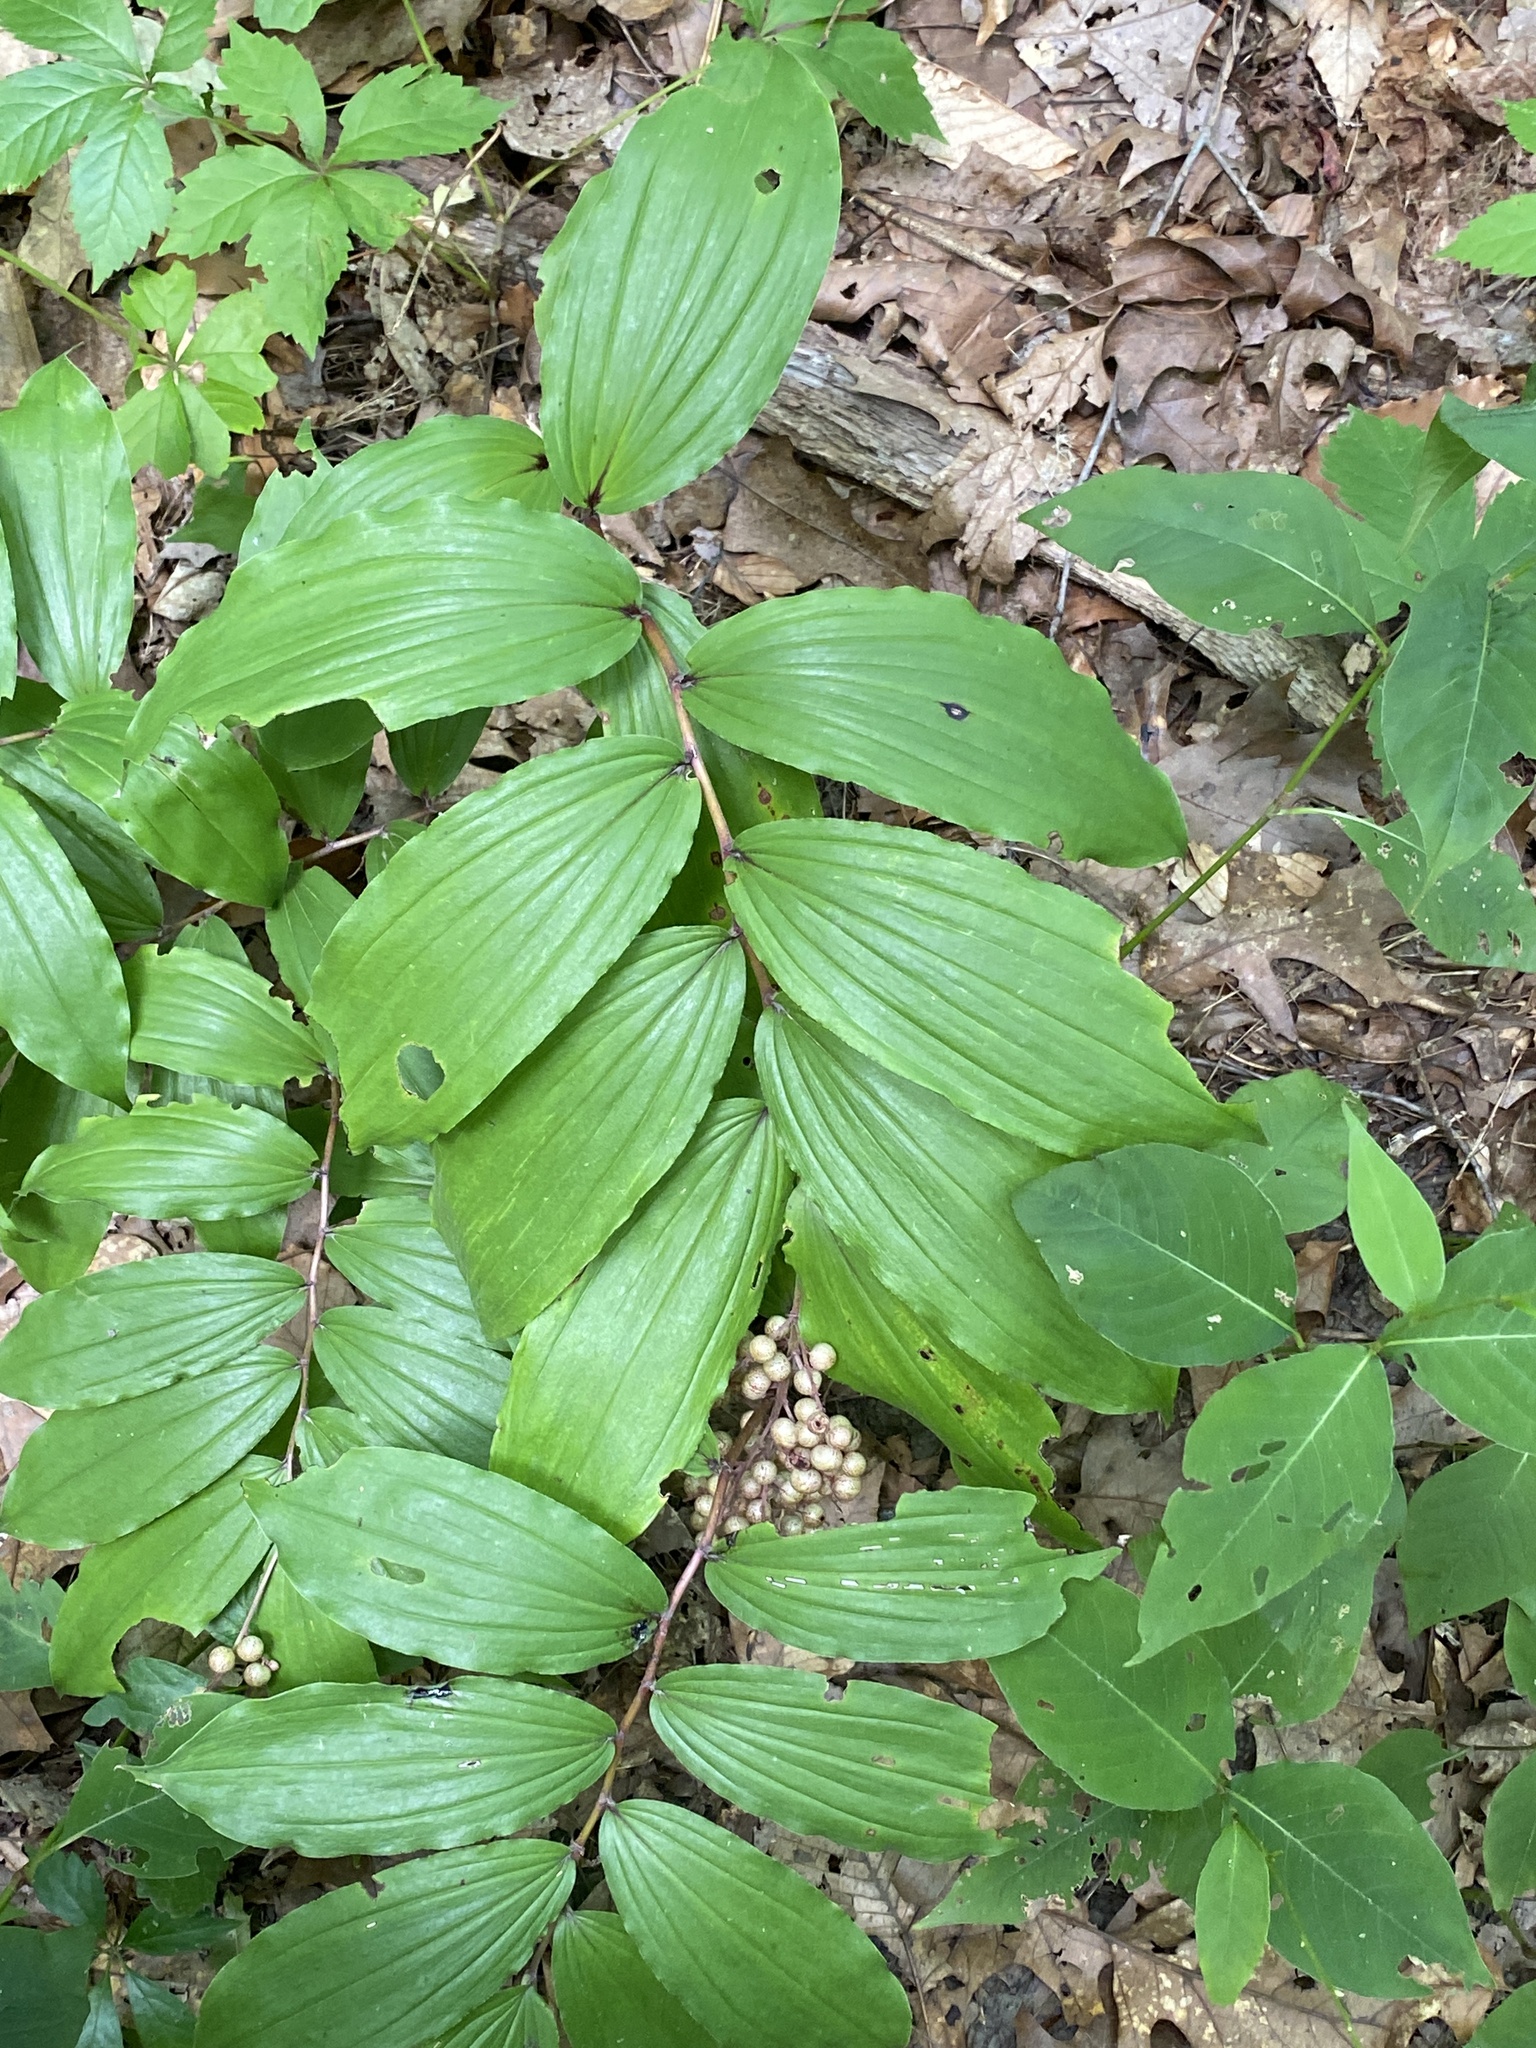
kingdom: Plantae
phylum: Tracheophyta
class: Liliopsida
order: Asparagales
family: Asparagaceae
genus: Maianthemum
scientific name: Maianthemum racemosum
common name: False spikenard
